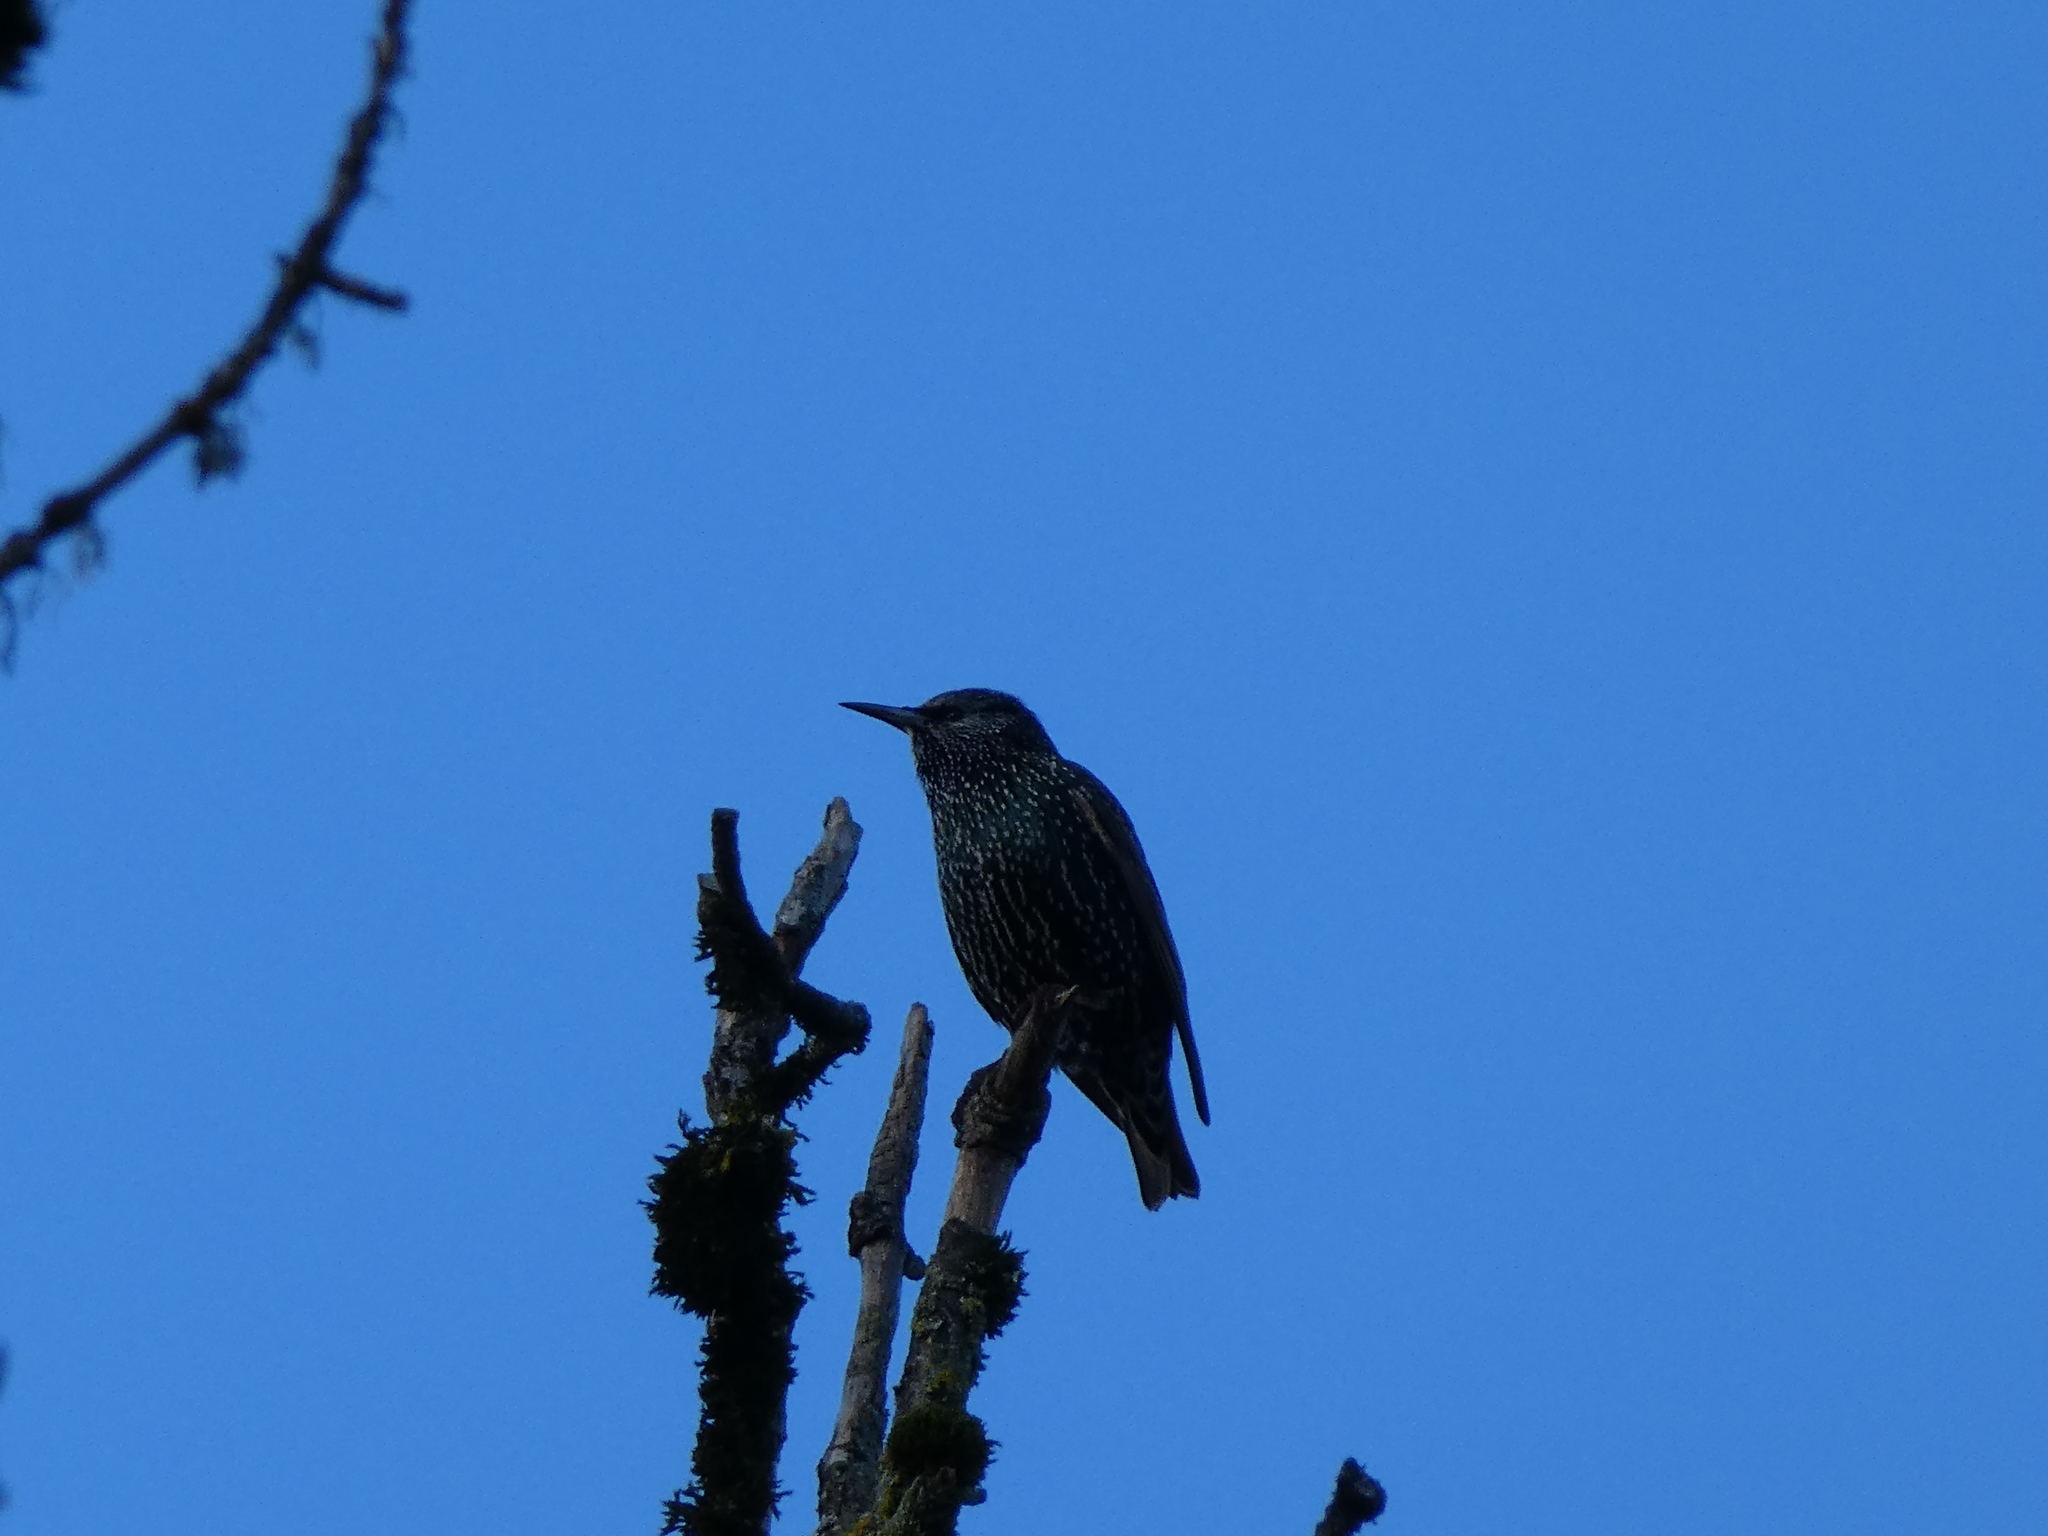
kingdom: Animalia
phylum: Chordata
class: Aves
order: Passeriformes
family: Sturnidae
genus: Sturnus
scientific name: Sturnus vulgaris
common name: Common starling
